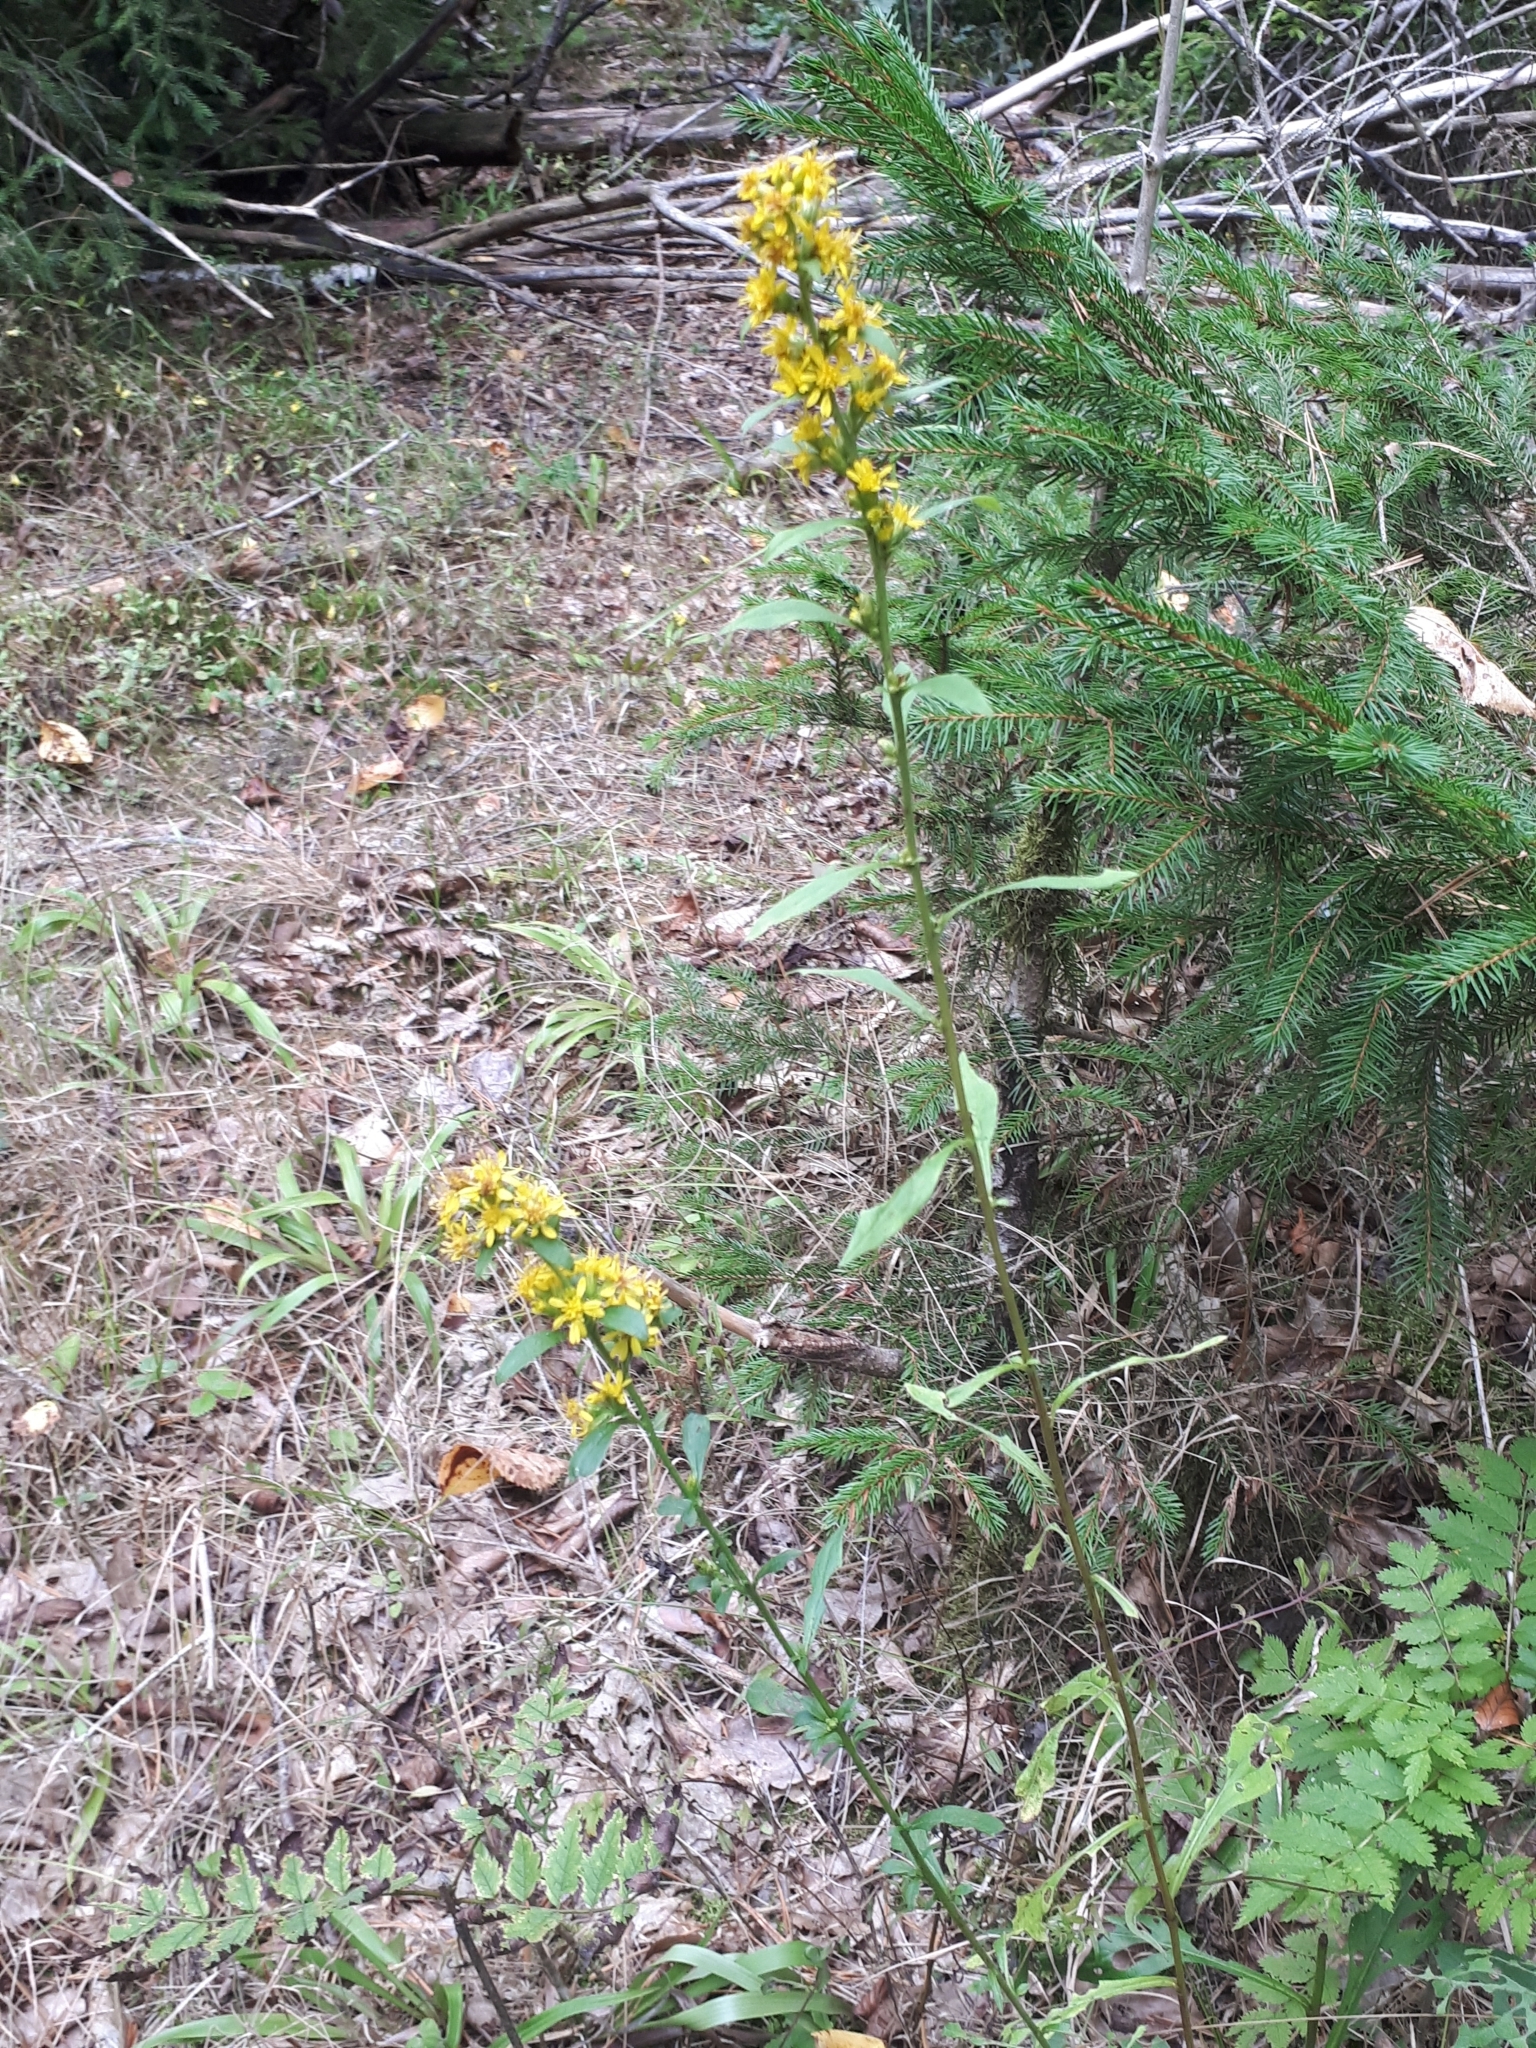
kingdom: Plantae
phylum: Tracheophyta
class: Magnoliopsida
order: Asterales
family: Asteraceae
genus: Solidago
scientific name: Solidago virgaurea
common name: Goldenrod
